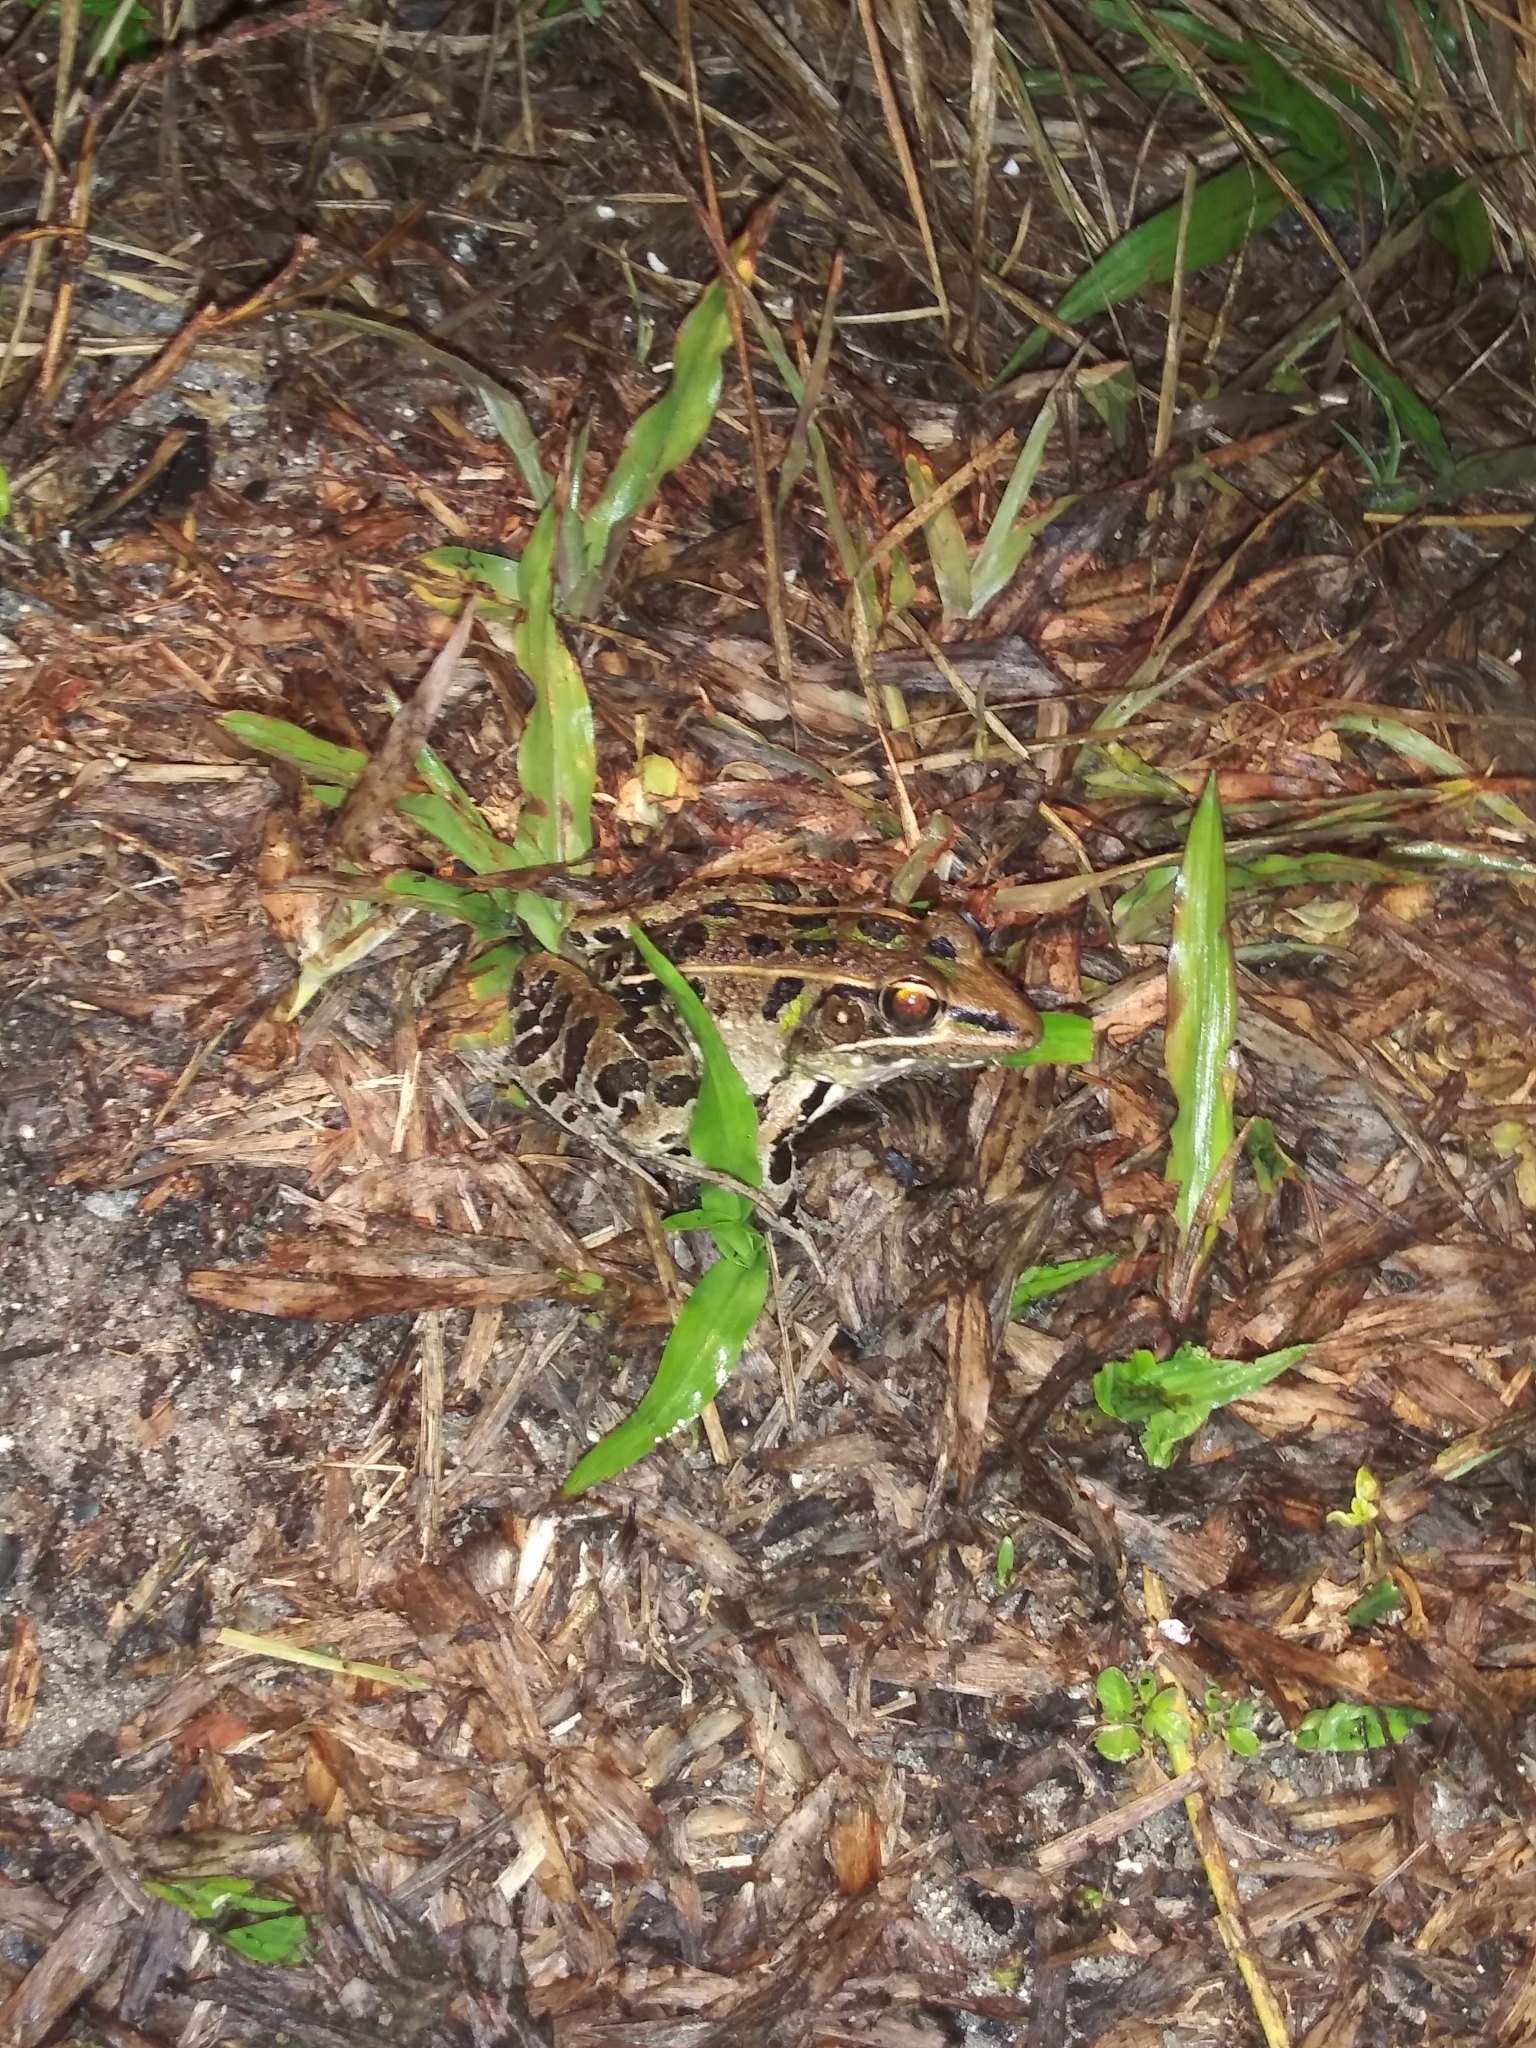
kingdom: Animalia
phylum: Chordata
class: Amphibia
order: Anura
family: Ranidae
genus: Lithobates
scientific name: Lithobates sphenocephalus
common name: Southern leopard frog
